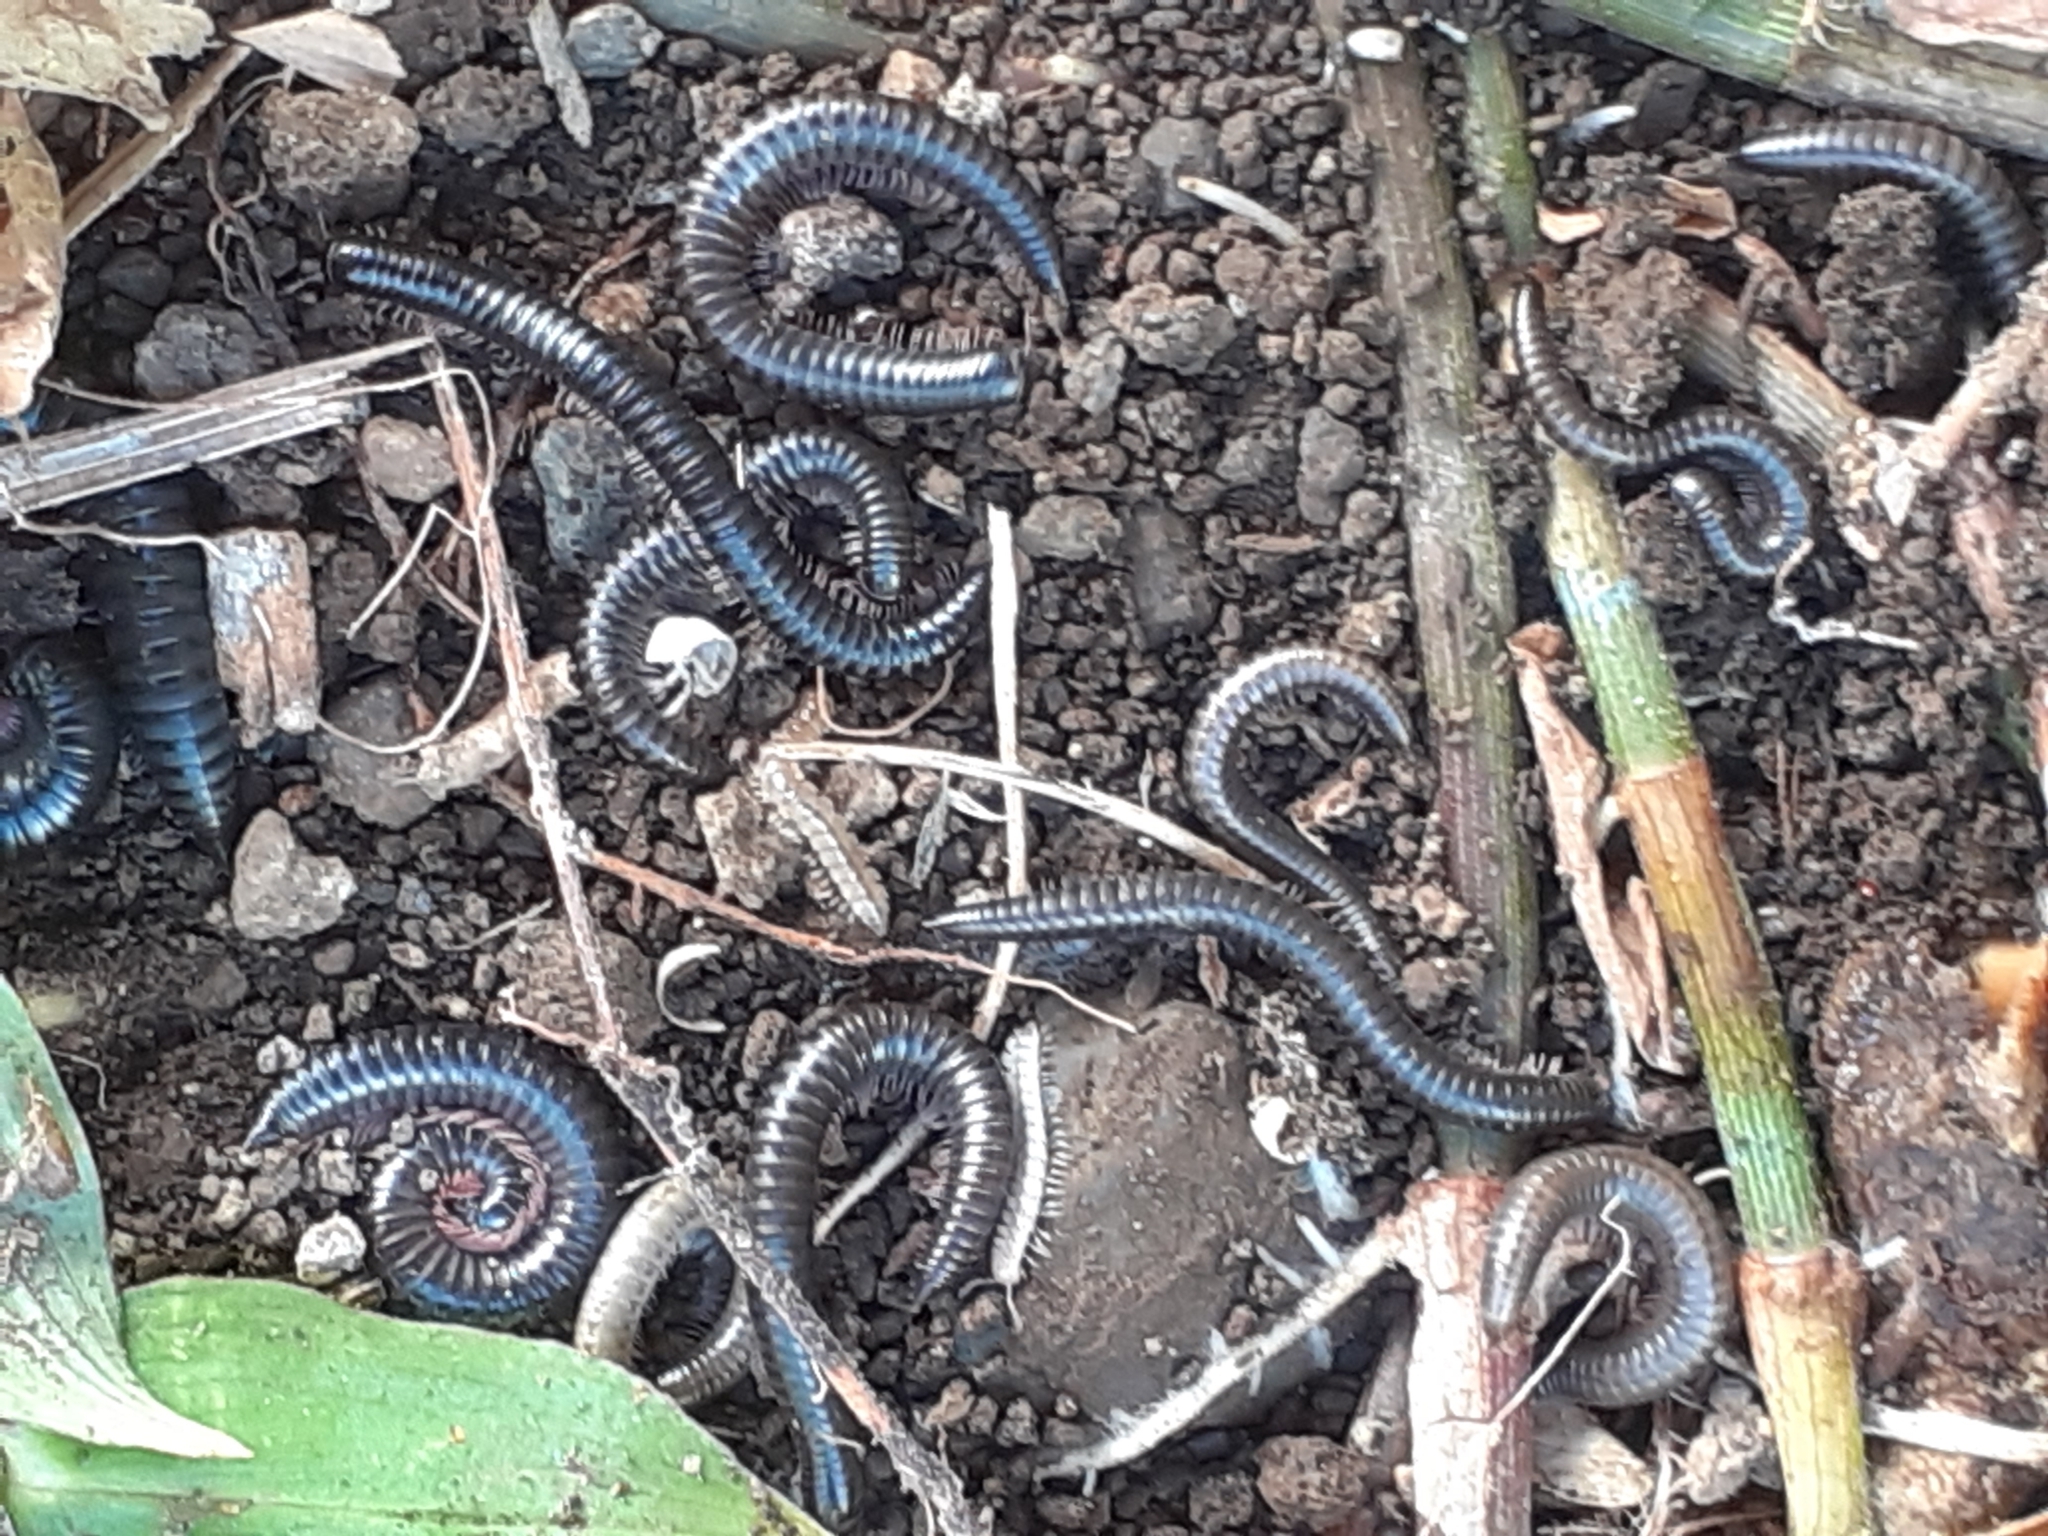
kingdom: Animalia
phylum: Arthropoda
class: Diplopoda
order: Julida
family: Julidae
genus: Ommatoiulus
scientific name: Ommatoiulus moreleti
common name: Portuguese millipede
